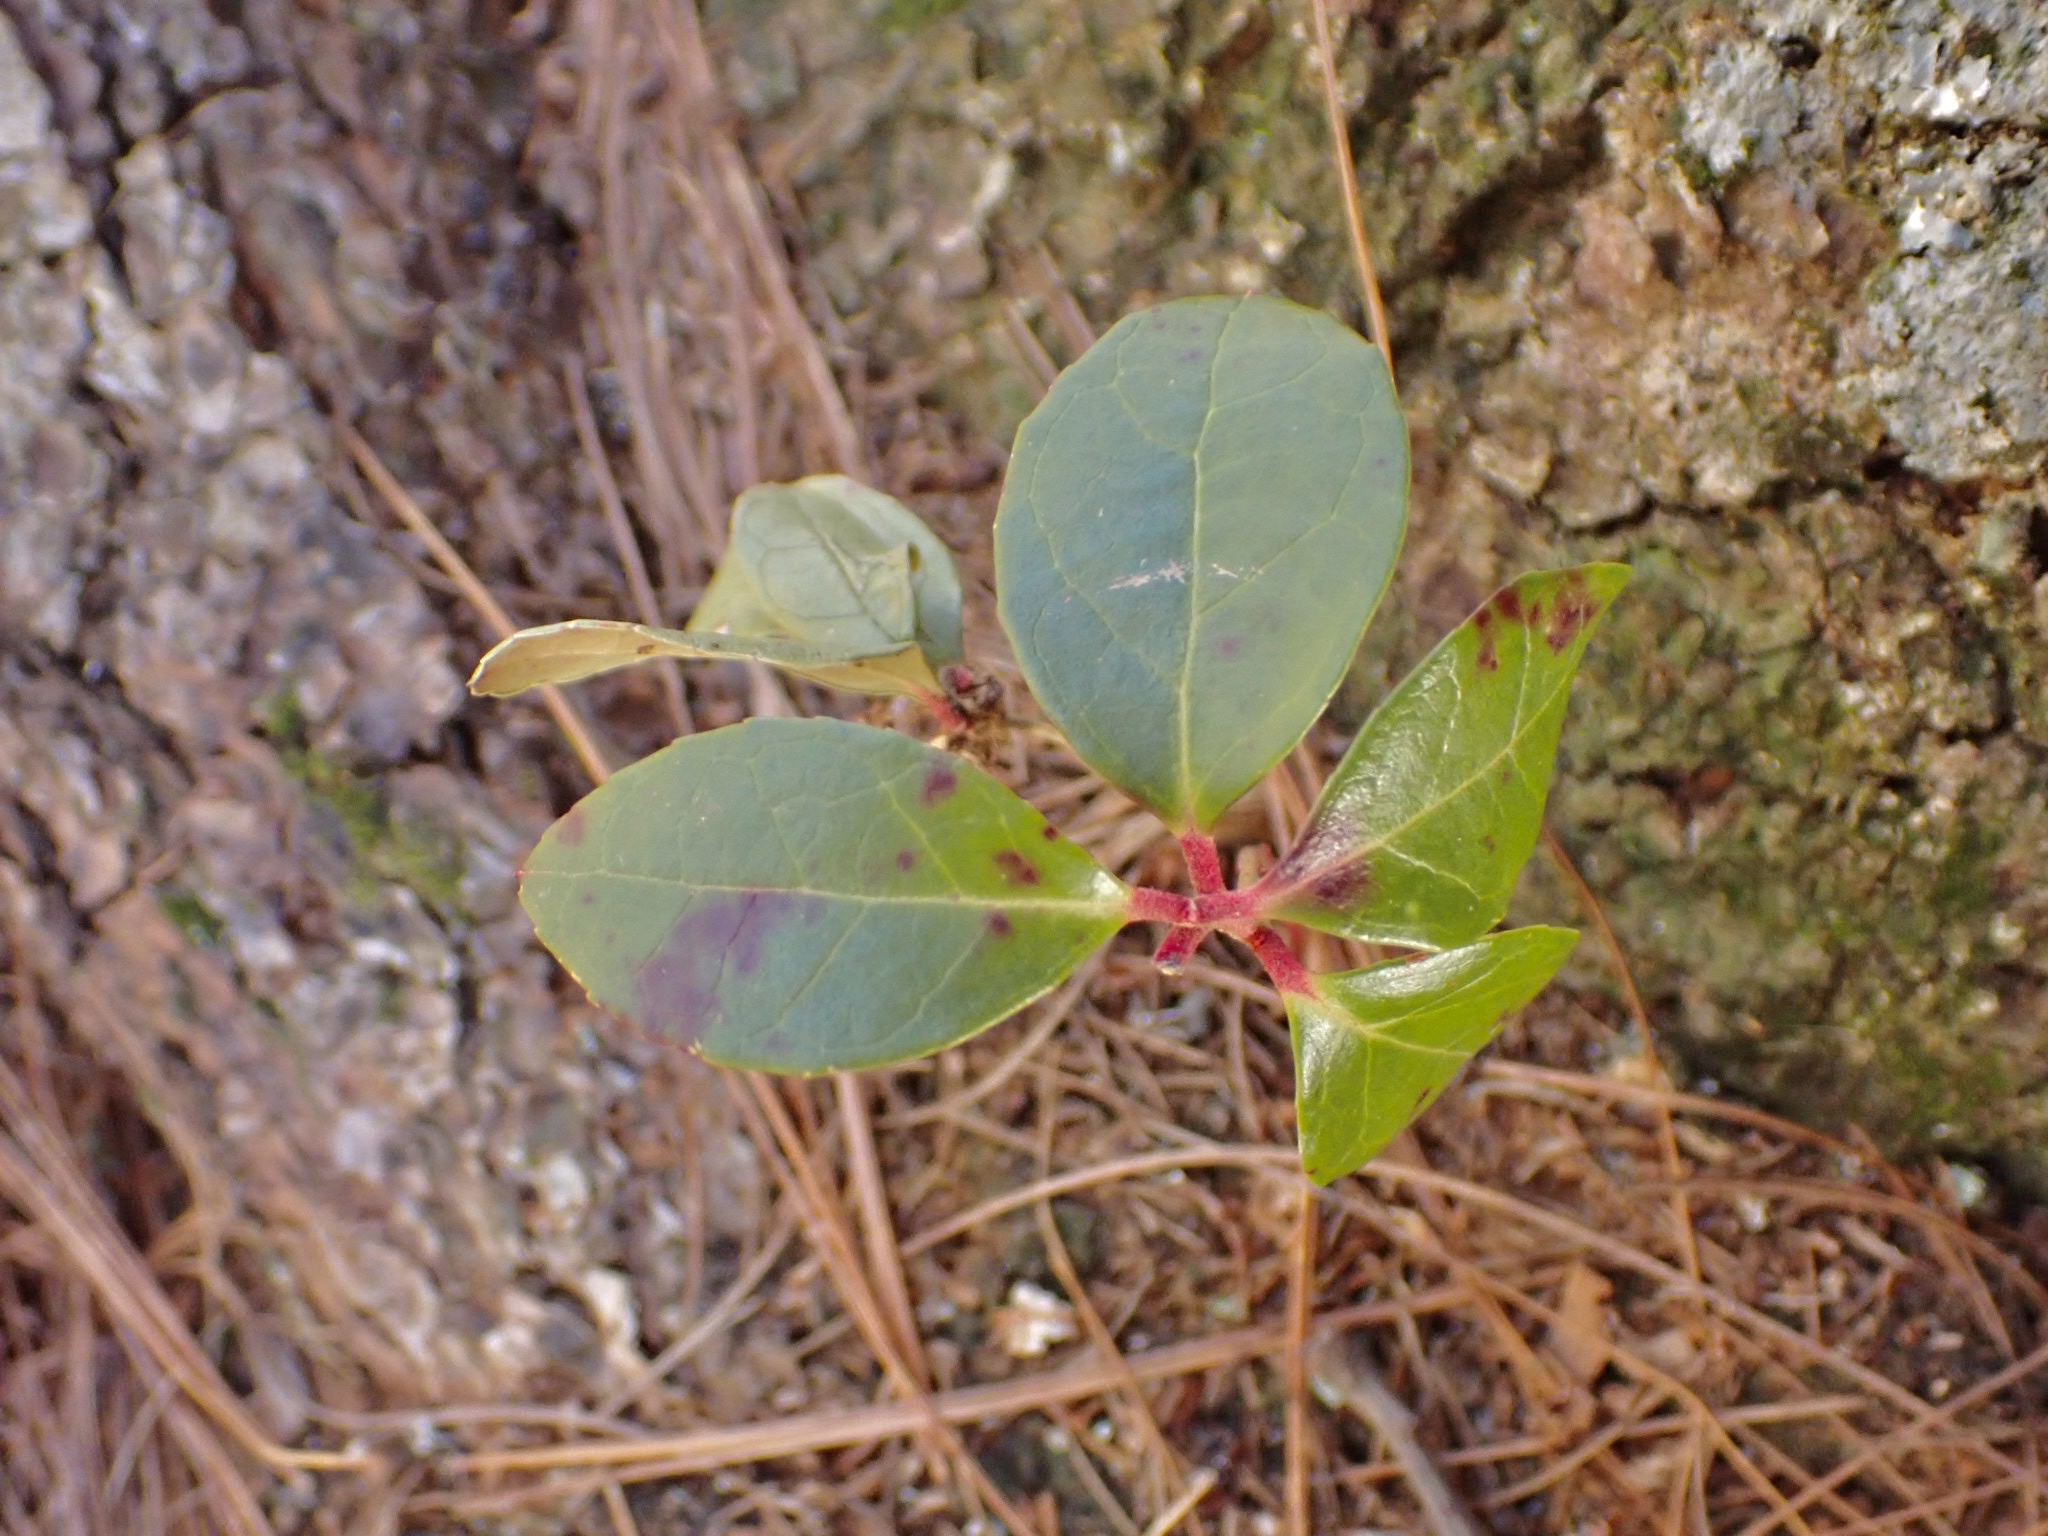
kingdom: Plantae
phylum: Tracheophyta
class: Magnoliopsida
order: Ericales
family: Ericaceae
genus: Gaultheria
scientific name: Gaultheria procumbens
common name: Checkerberry
